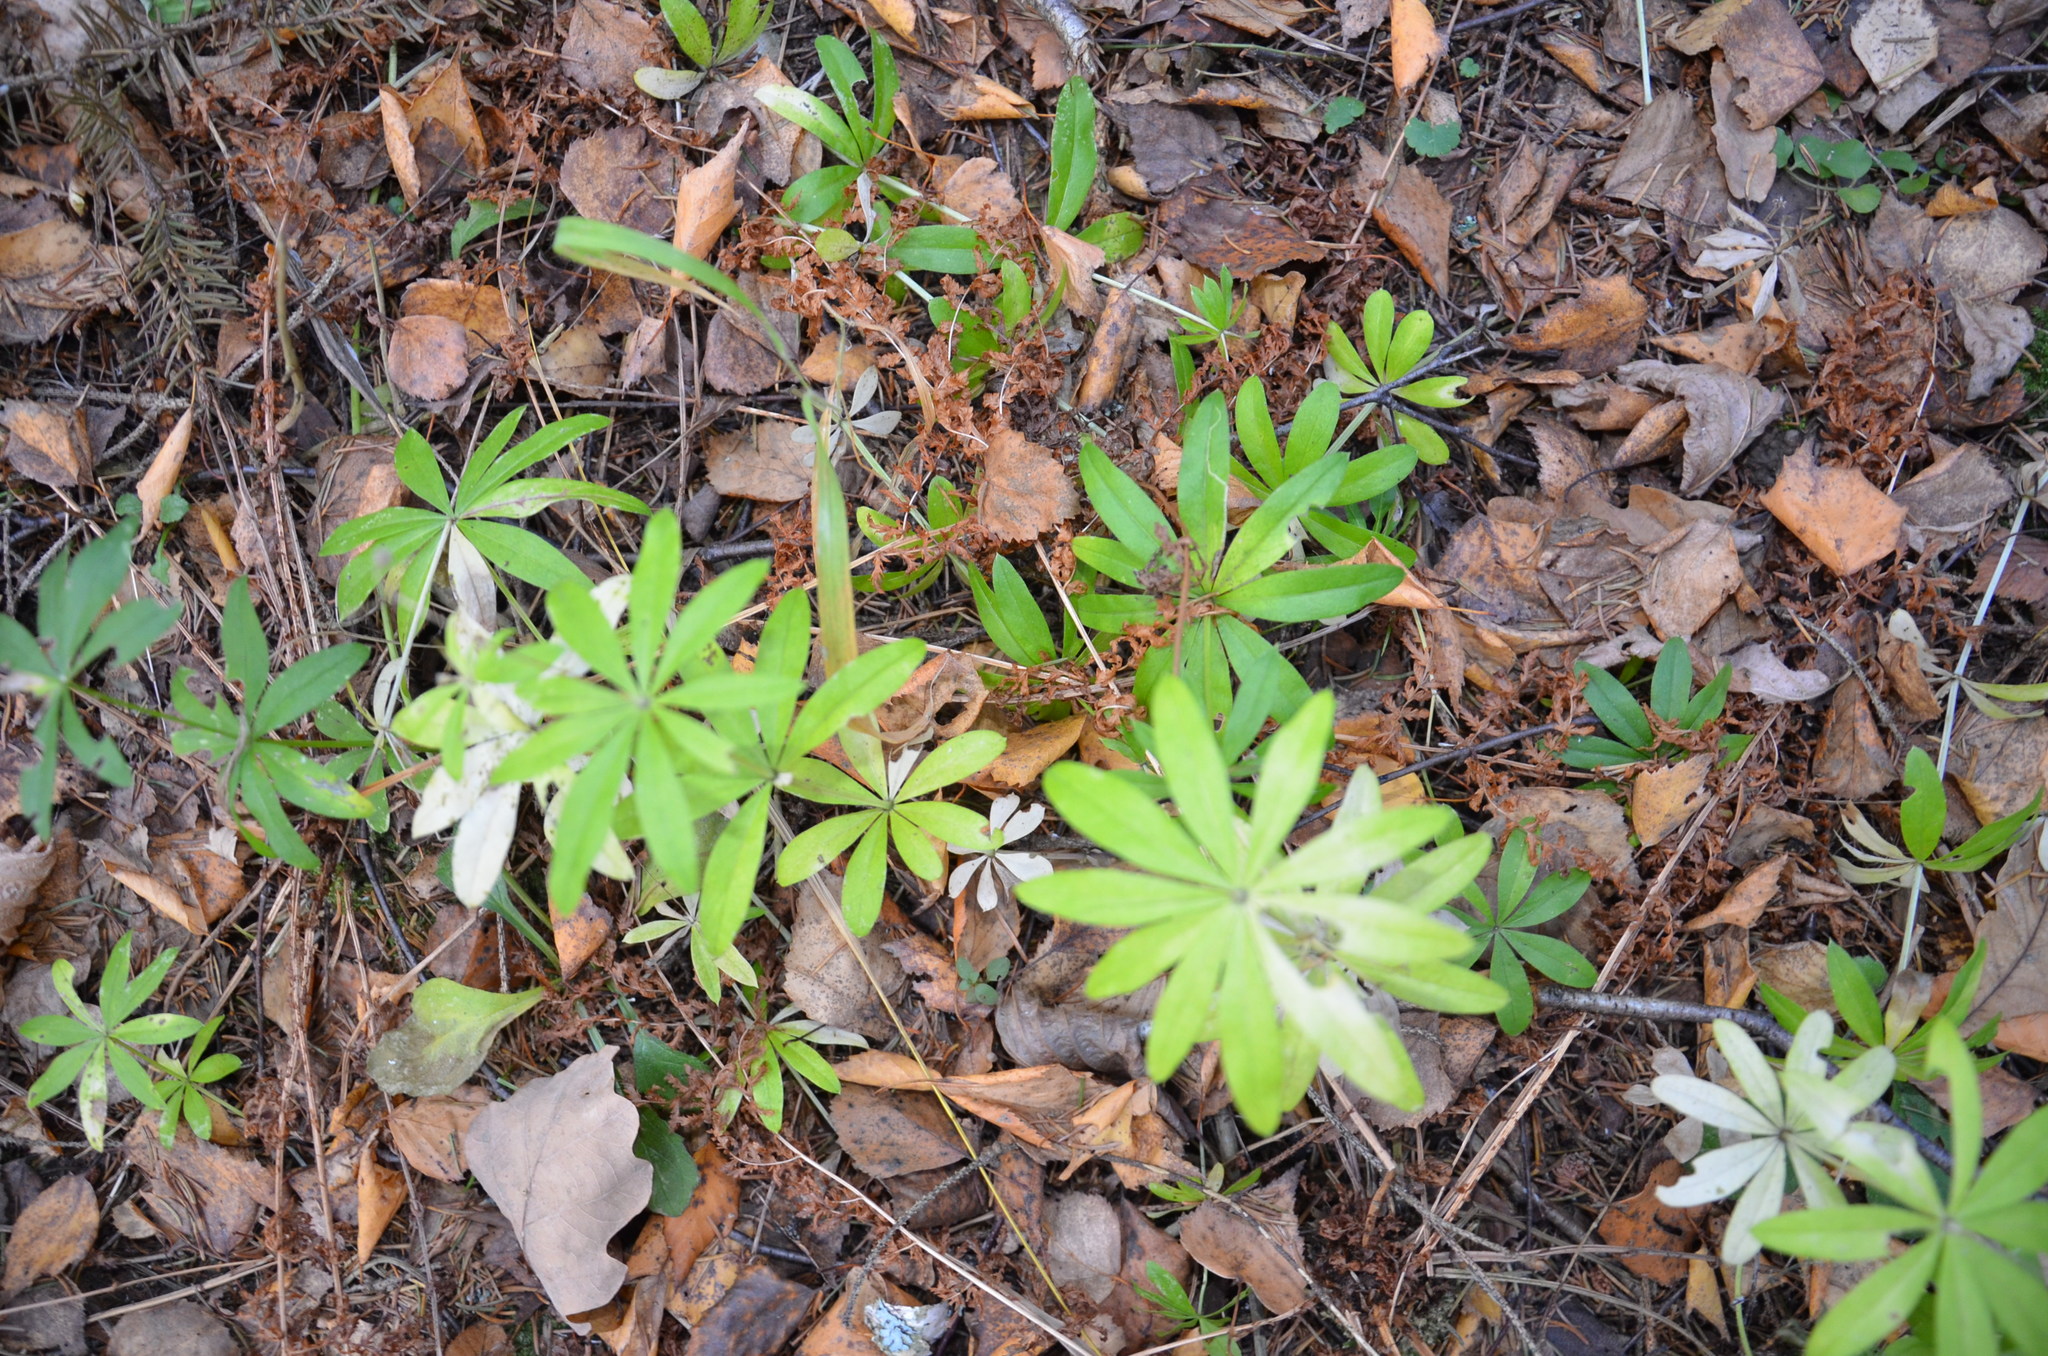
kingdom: Plantae
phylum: Tracheophyta
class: Magnoliopsida
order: Gentianales
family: Rubiaceae
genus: Galium
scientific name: Galium odoratum
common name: Sweet woodruff
